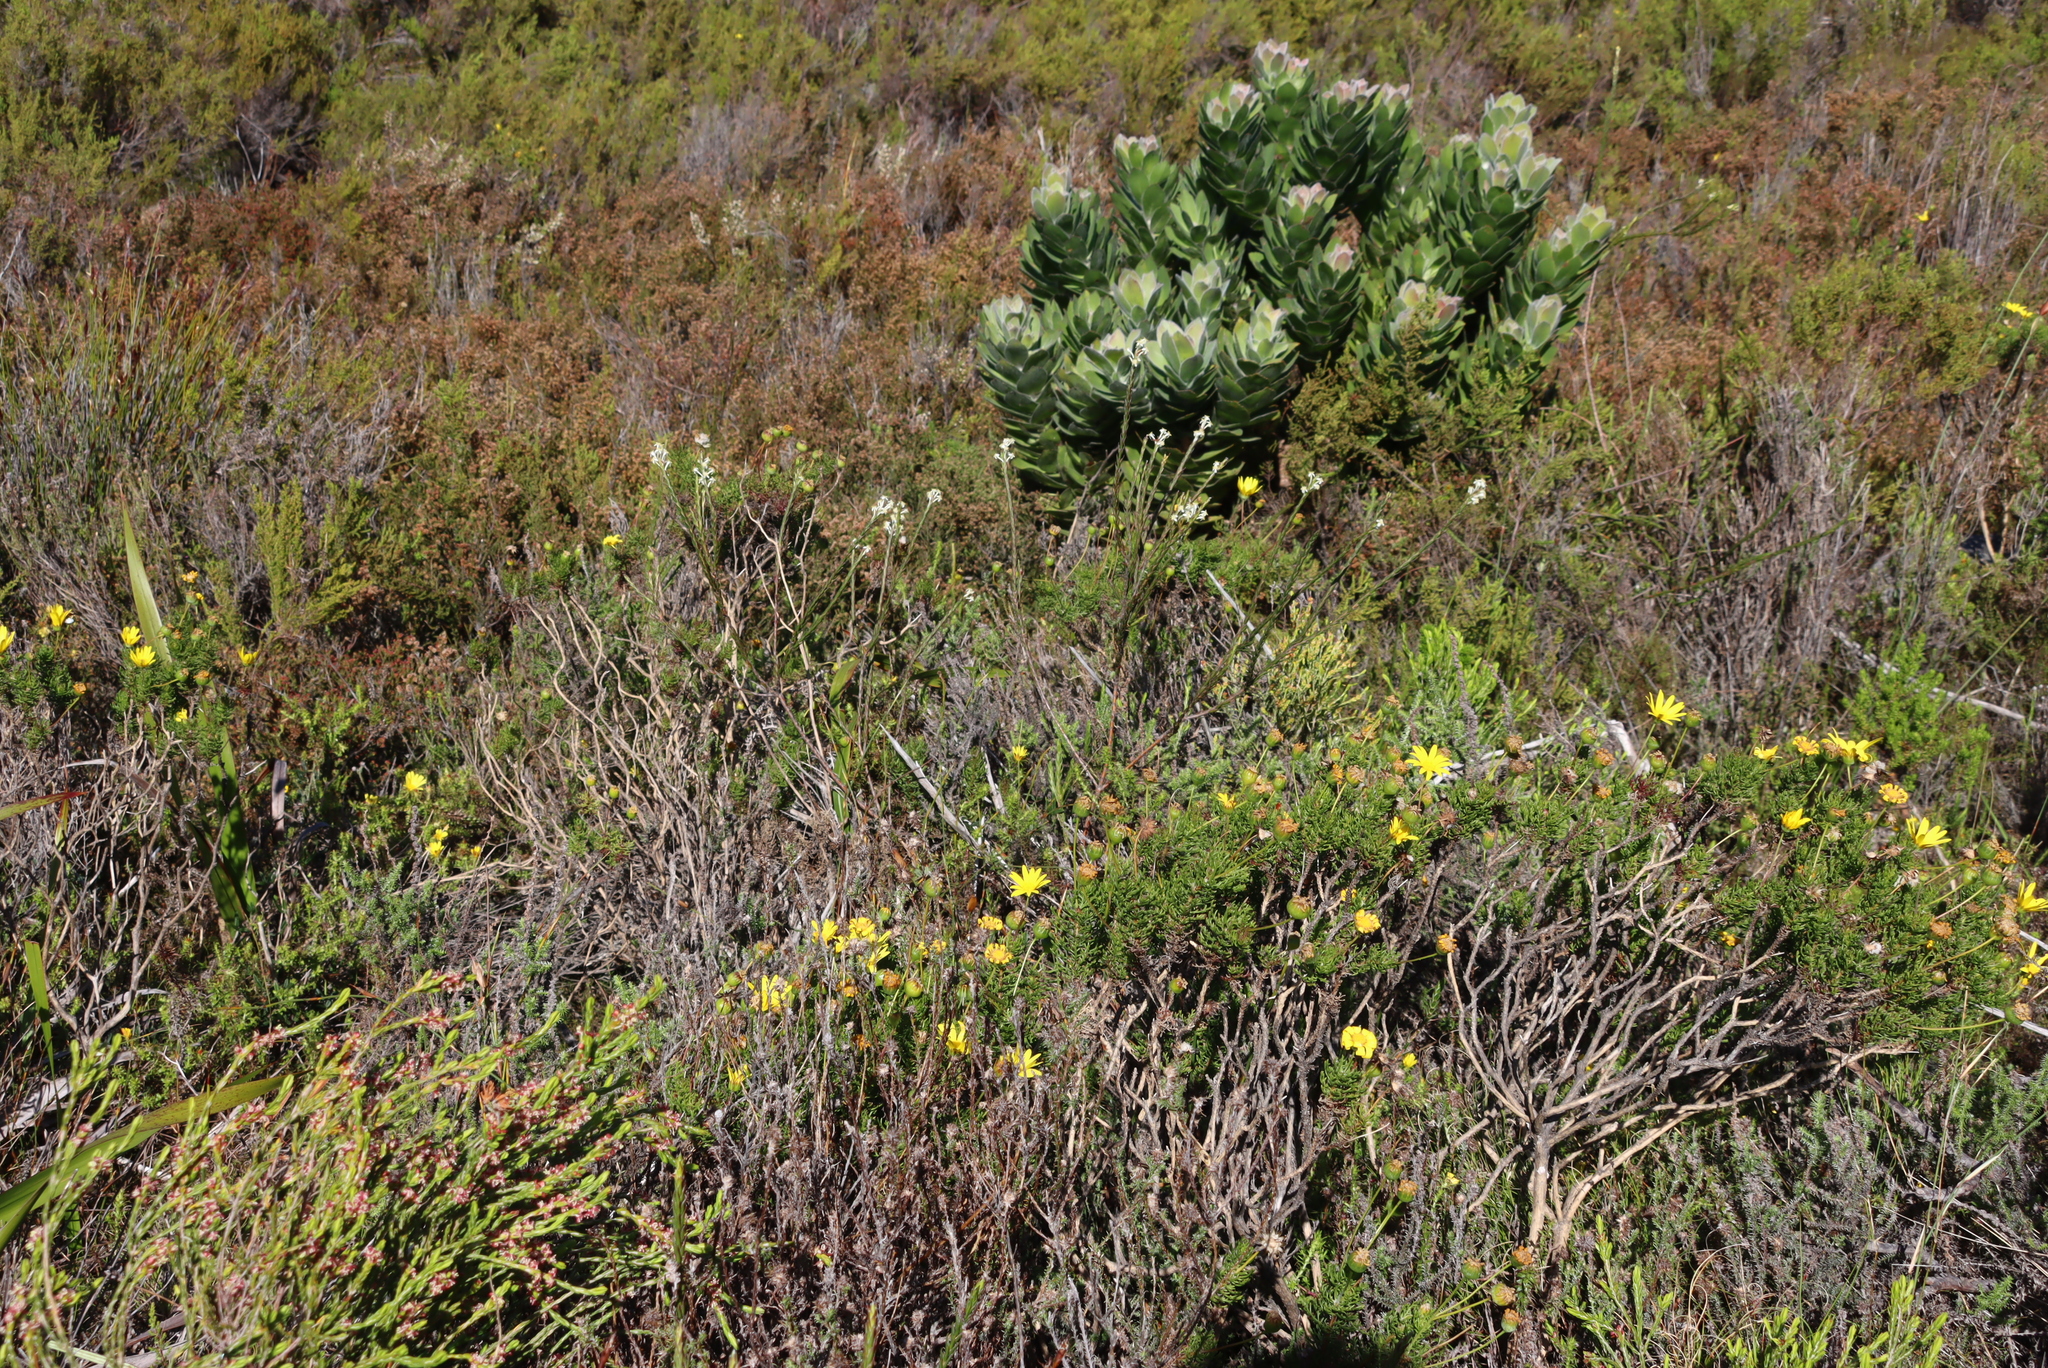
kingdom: Plantae
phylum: Tracheophyta
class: Magnoliopsida
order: Asterales
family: Asteraceae
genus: Euryops
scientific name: Euryops abrotanifolius
